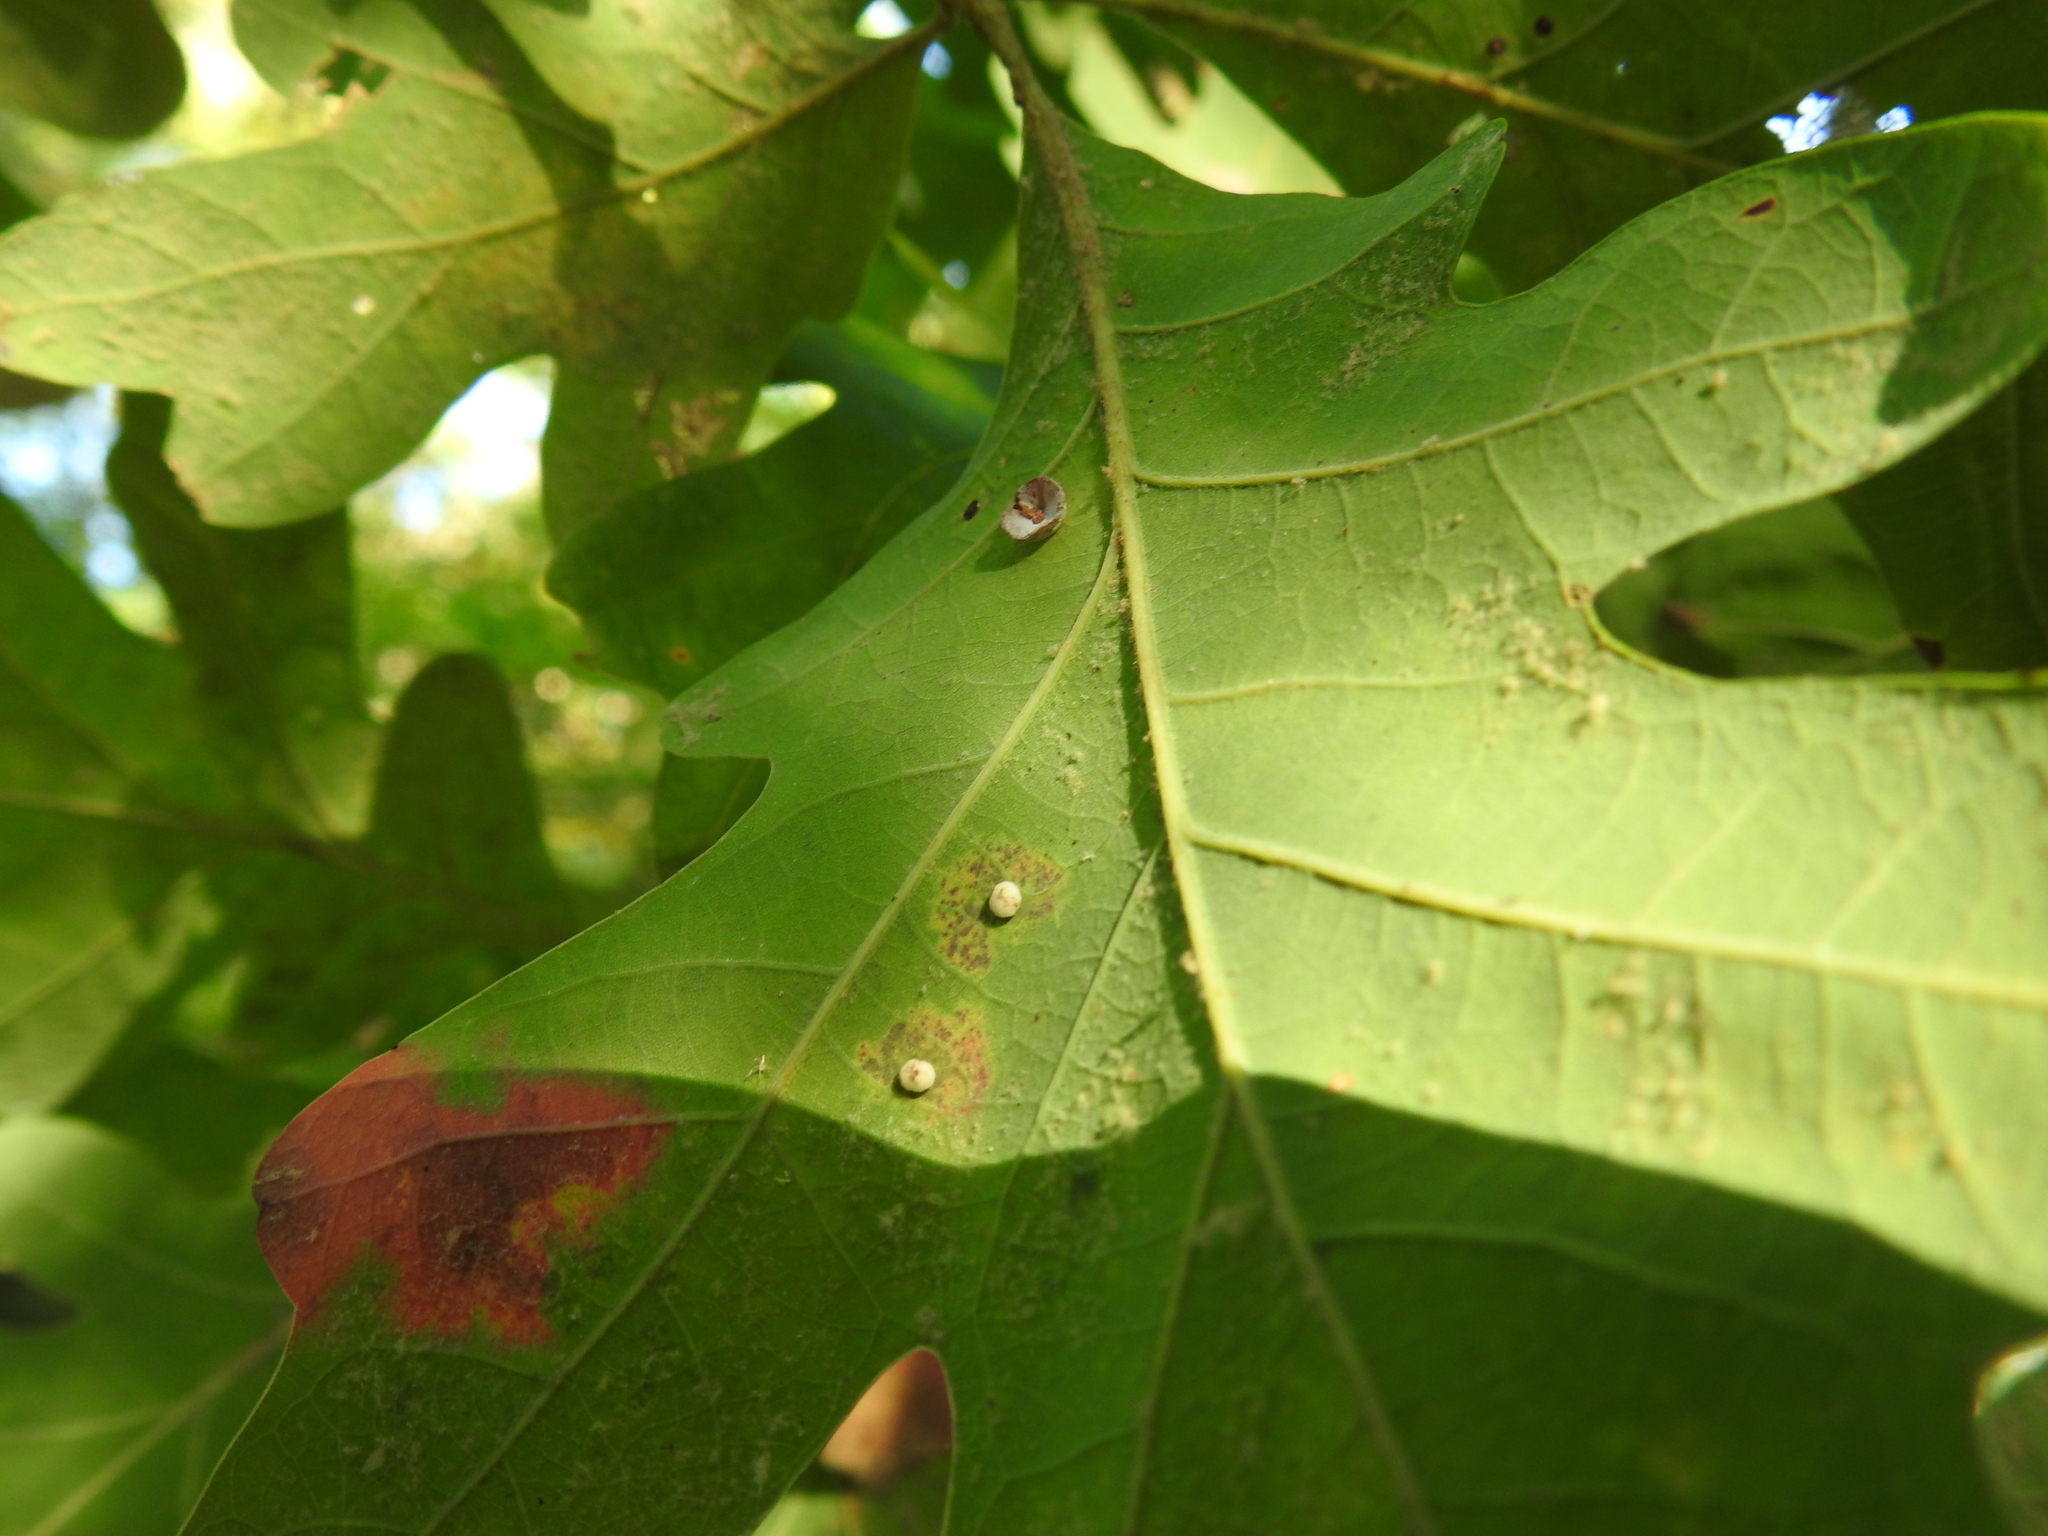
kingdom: Animalia
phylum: Arthropoda
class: Insecta
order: Hymenoptera
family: Cynipidae
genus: Phylloteras
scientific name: Phylloteras poculum
